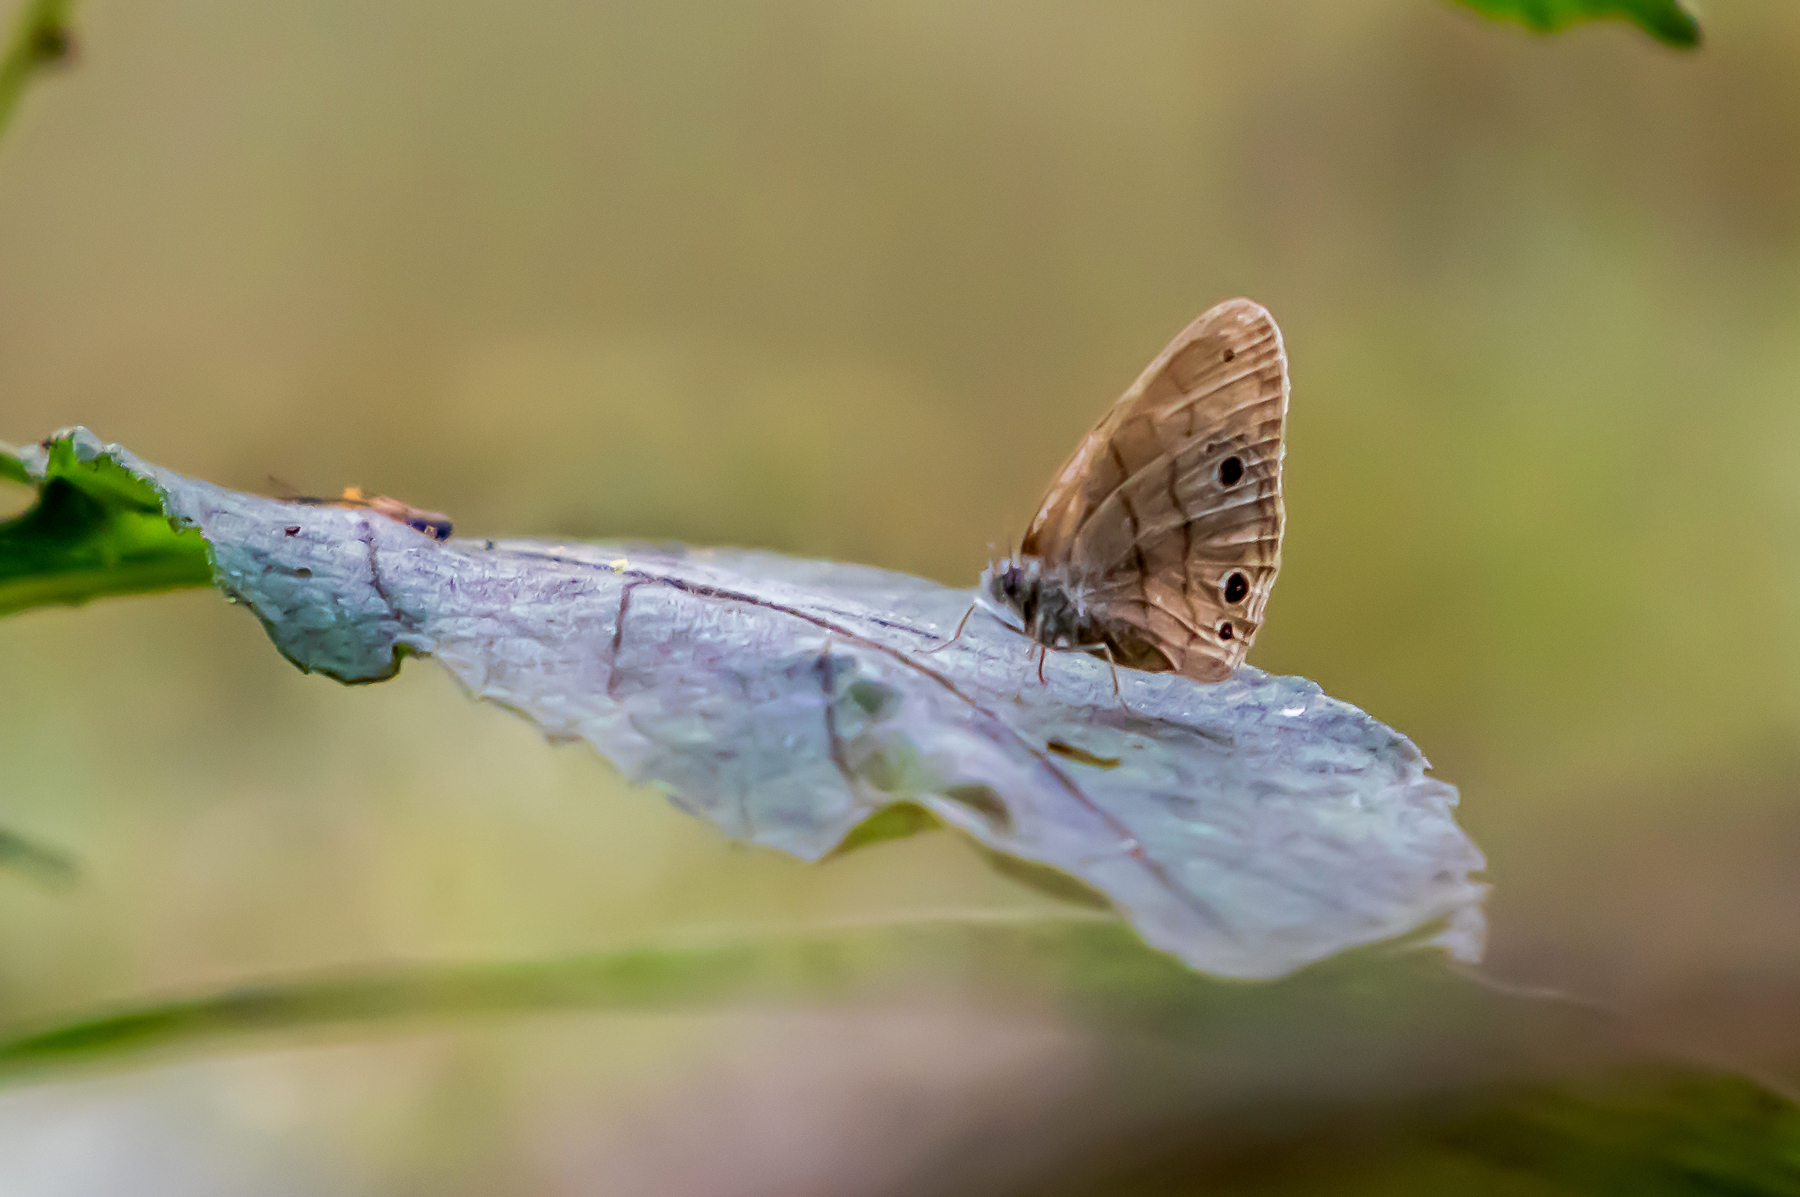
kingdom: Animalia
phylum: Arthropoda
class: Insecta
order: Lepidoptera
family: Nymphalidae
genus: Hermeuptychia
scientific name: Hermeuptychia hermes
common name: Hermes satyr
